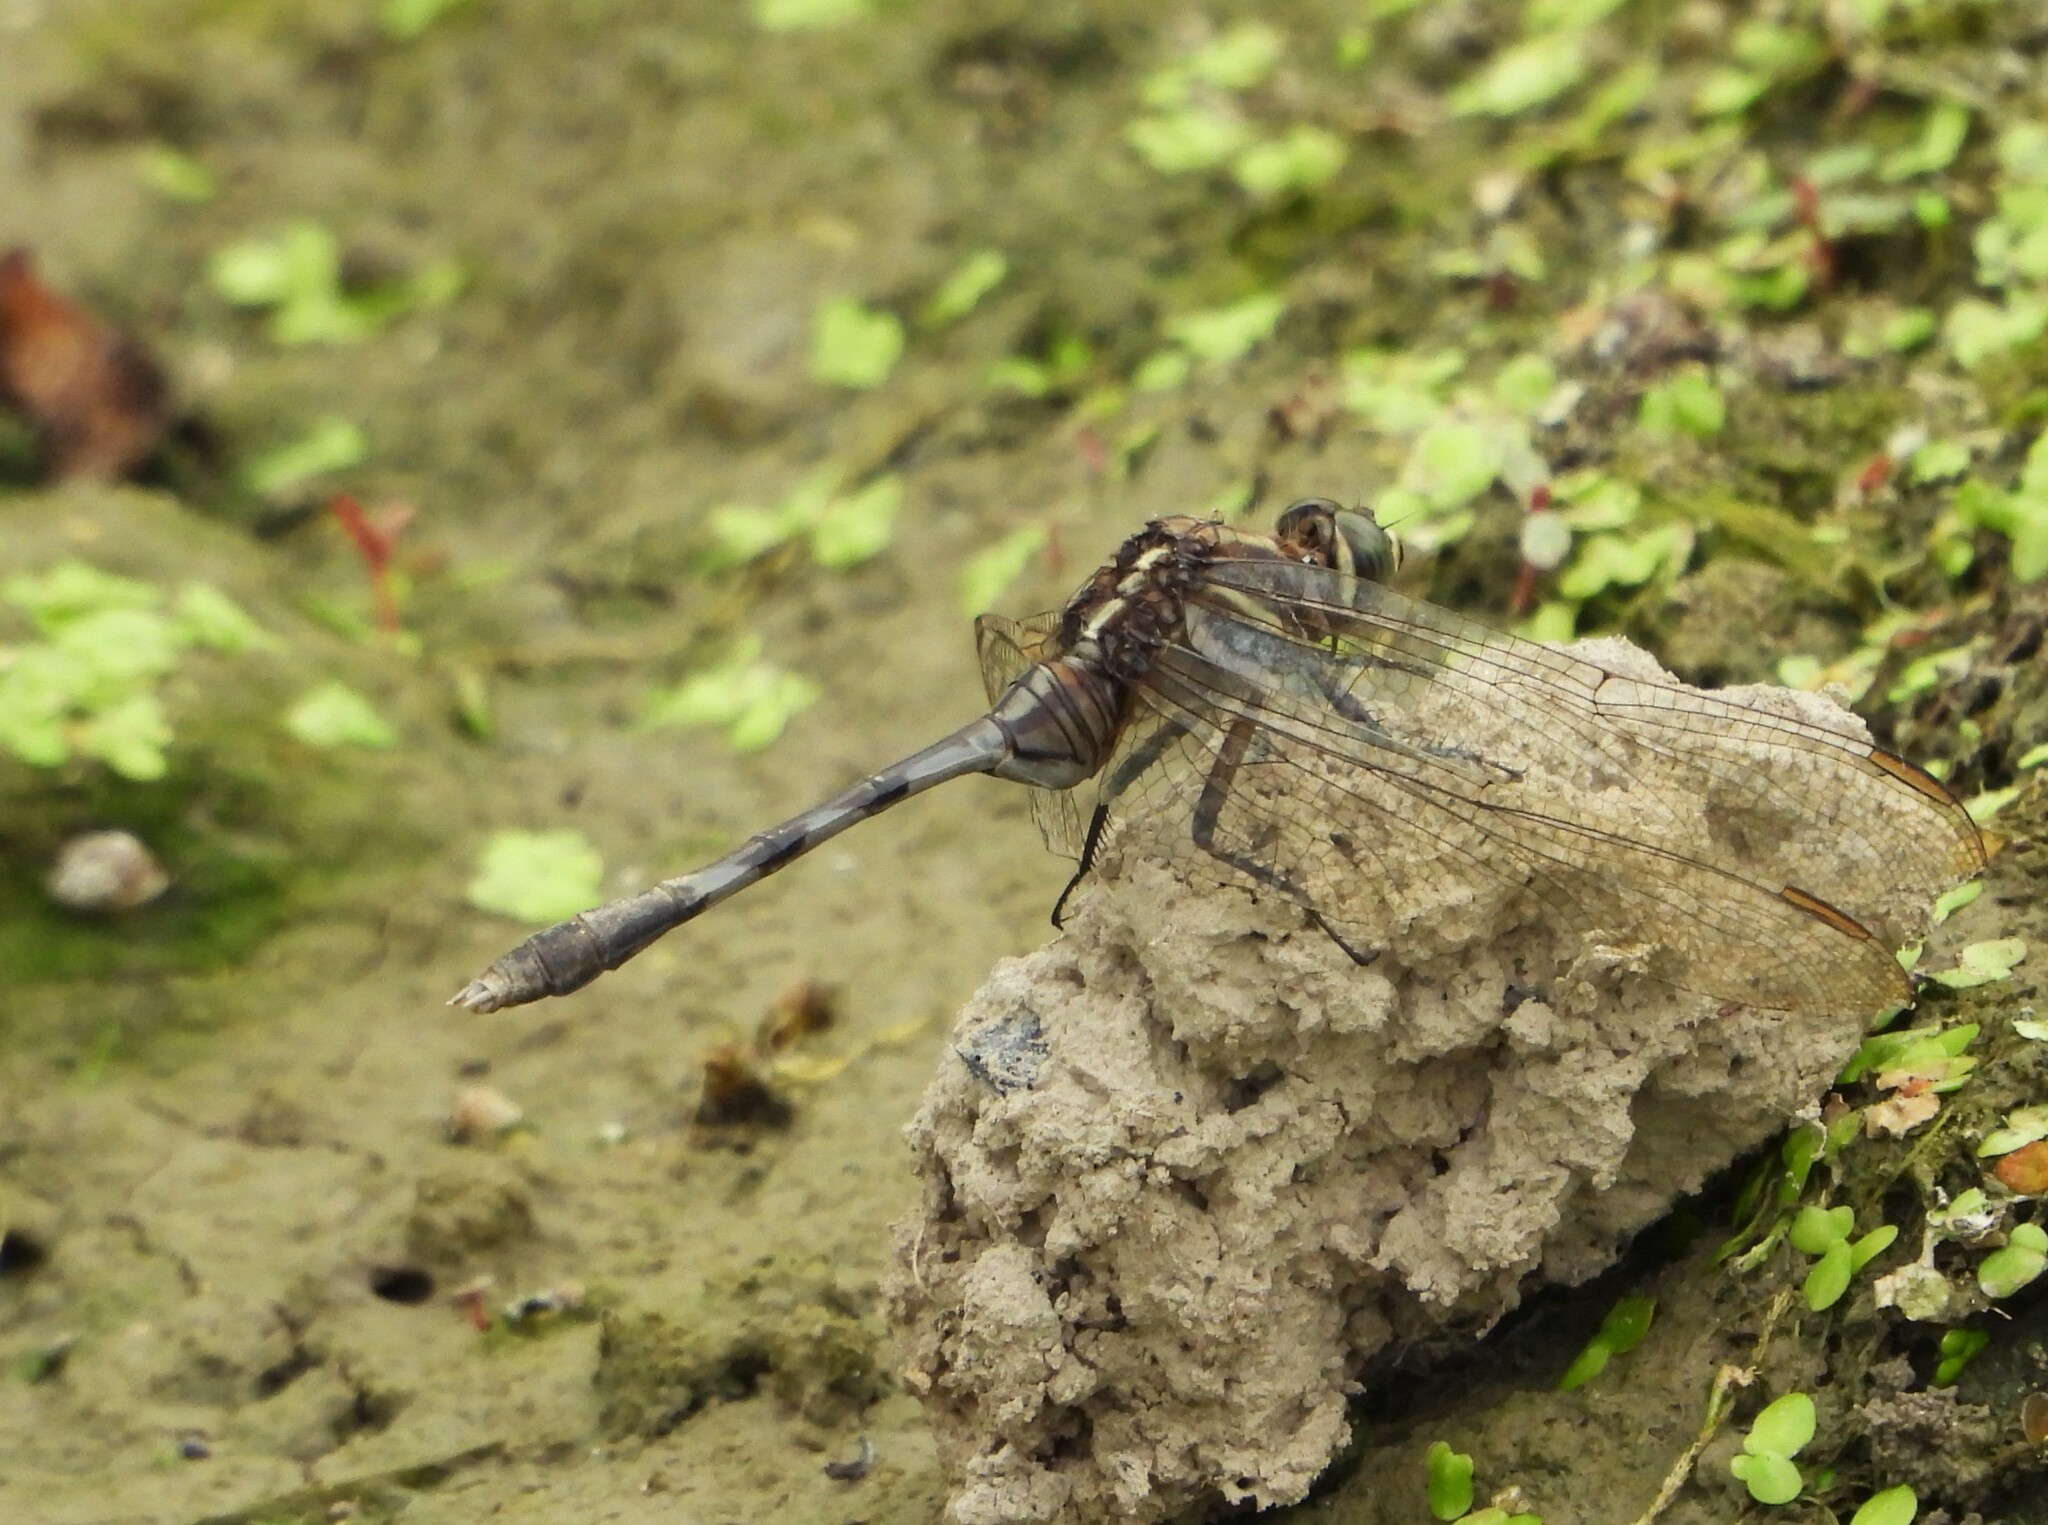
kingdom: Animalia
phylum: Arthropoda
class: Insecta
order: Odonata
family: Libellulidae
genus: Orthetrum
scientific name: Orthetrum sabina
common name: Slender skimmer
